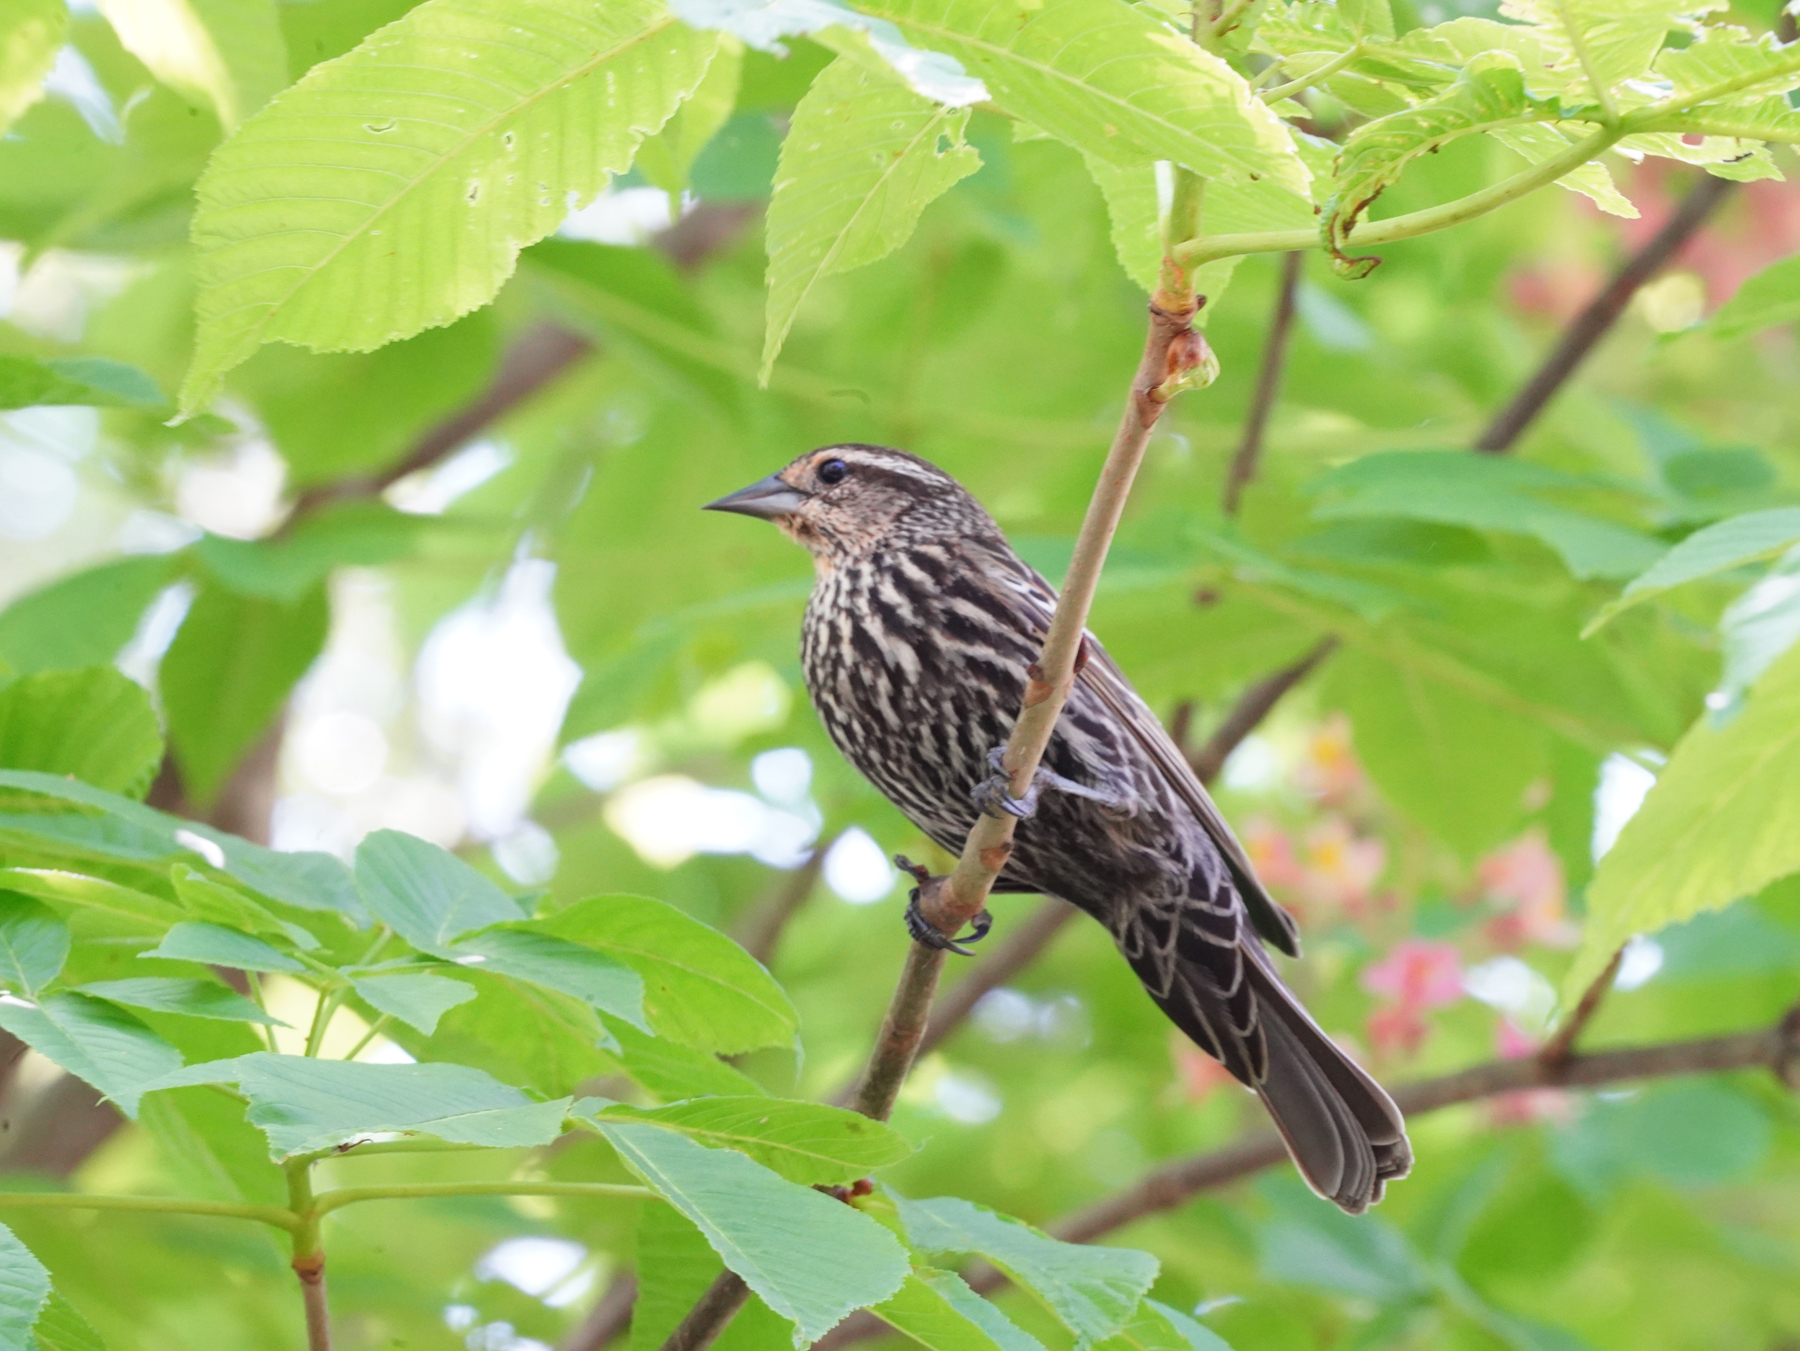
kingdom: Animalia
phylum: Chordata
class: Aves
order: Passeriformes
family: Icteridae
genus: Agelaius
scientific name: Agelaius phoeniceus
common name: Red-winged blackbird
